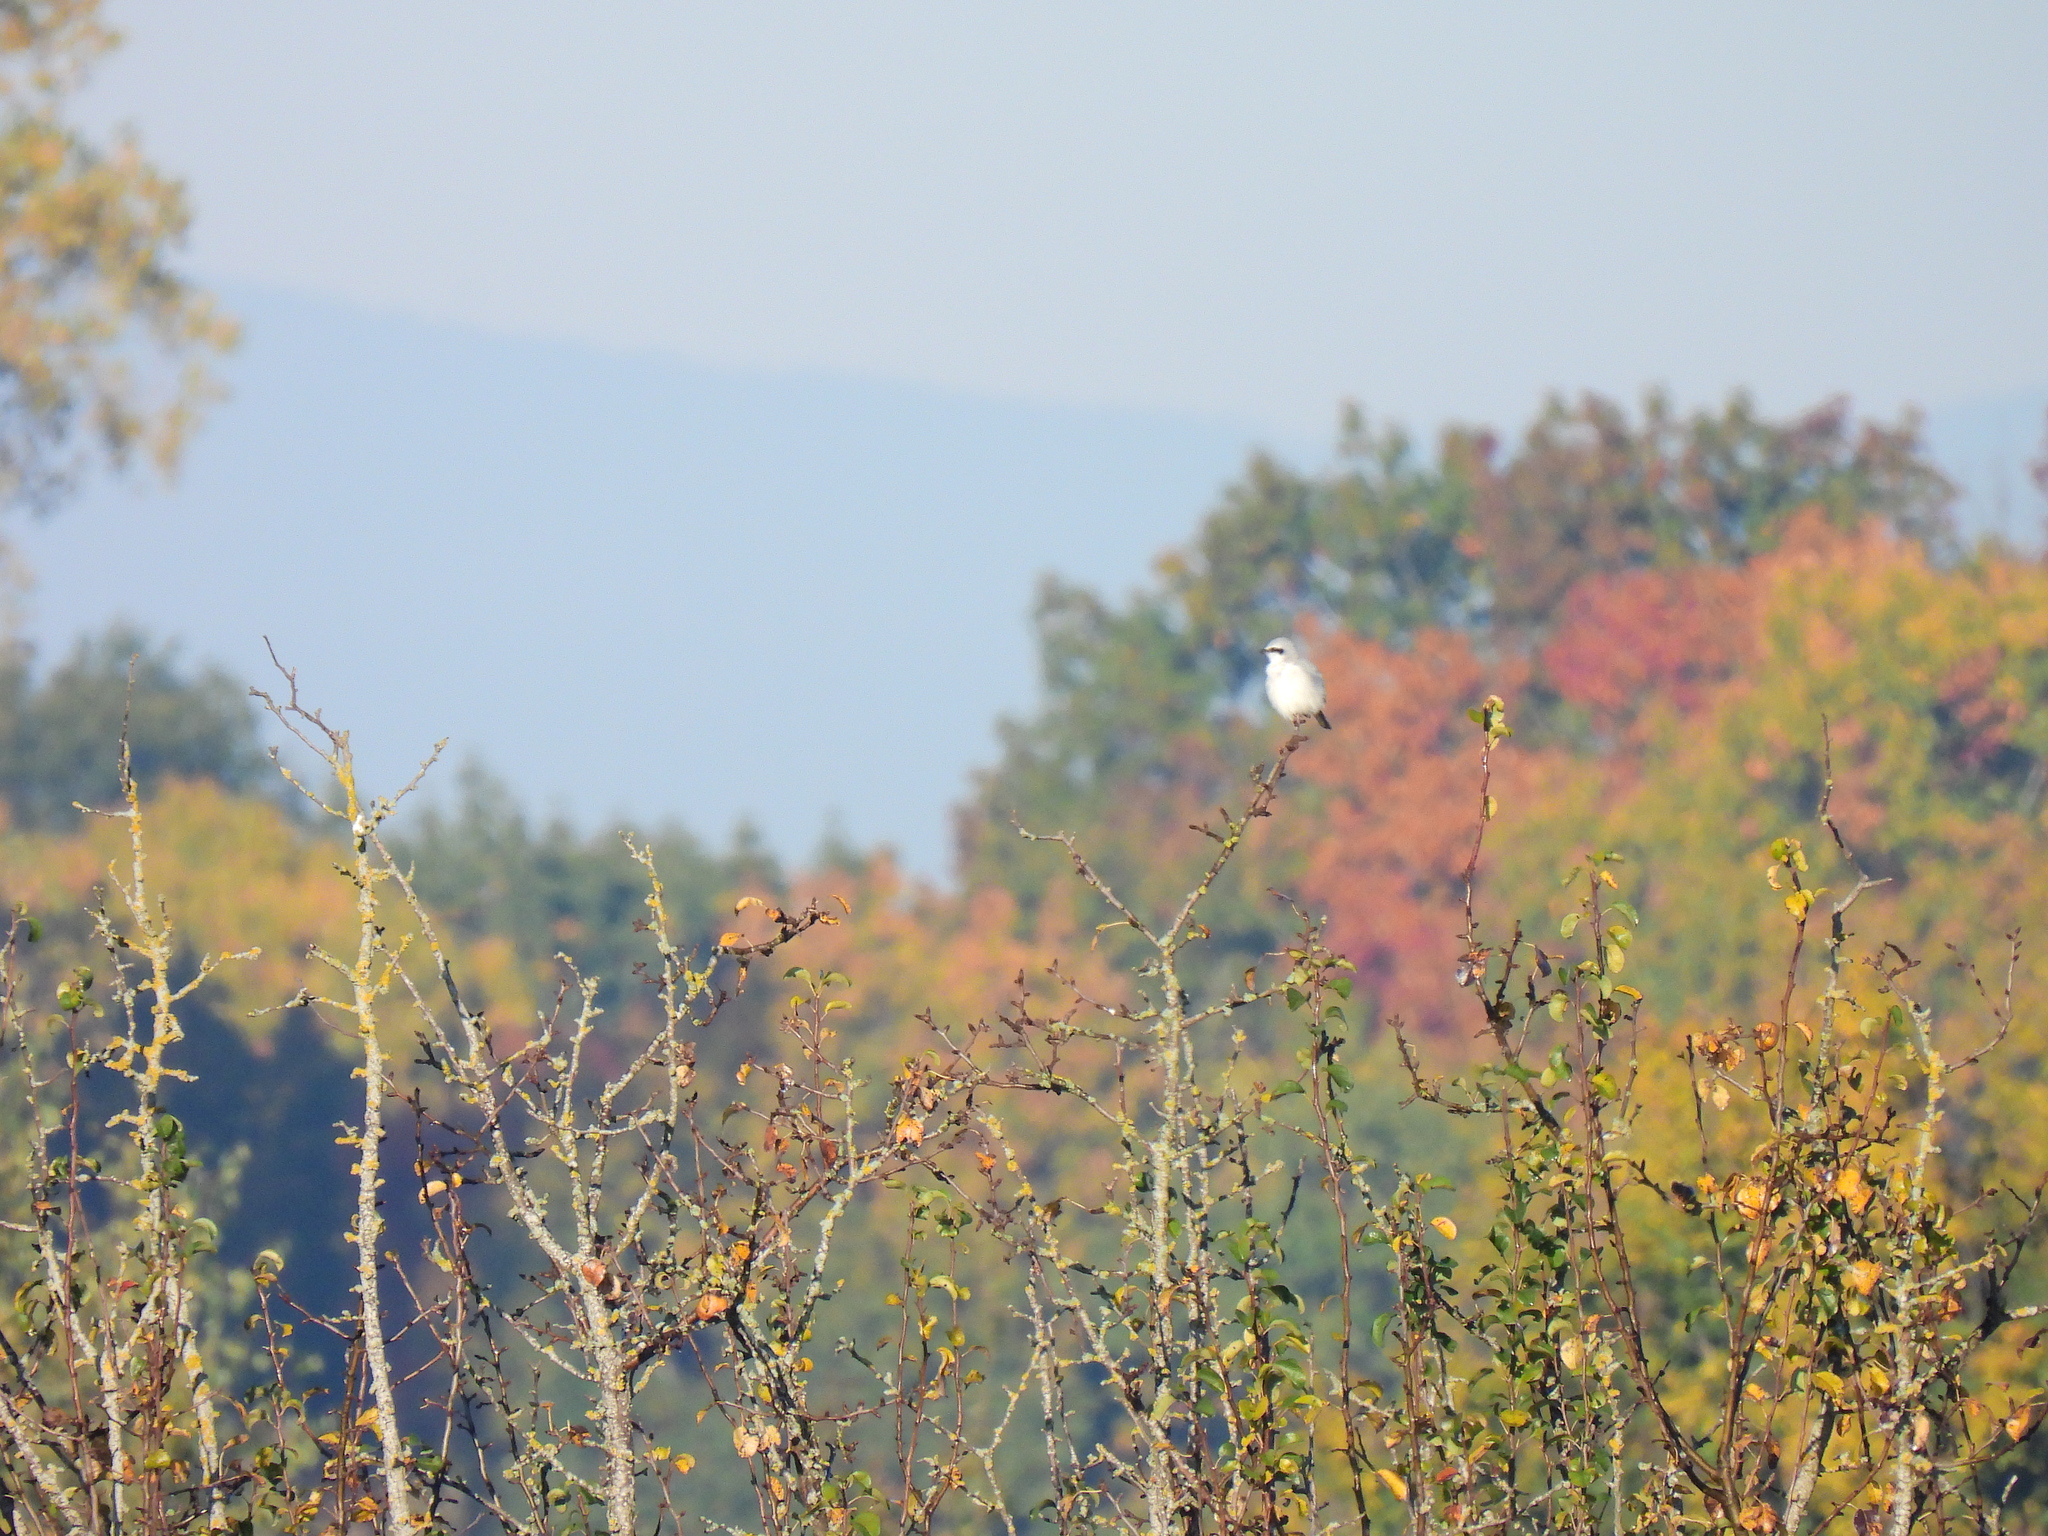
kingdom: Animalia
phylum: Chordata
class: Aves
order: Passeriformes
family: Laniidae
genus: Lanius
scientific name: Lanius excubitor
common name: Great grey shrike
